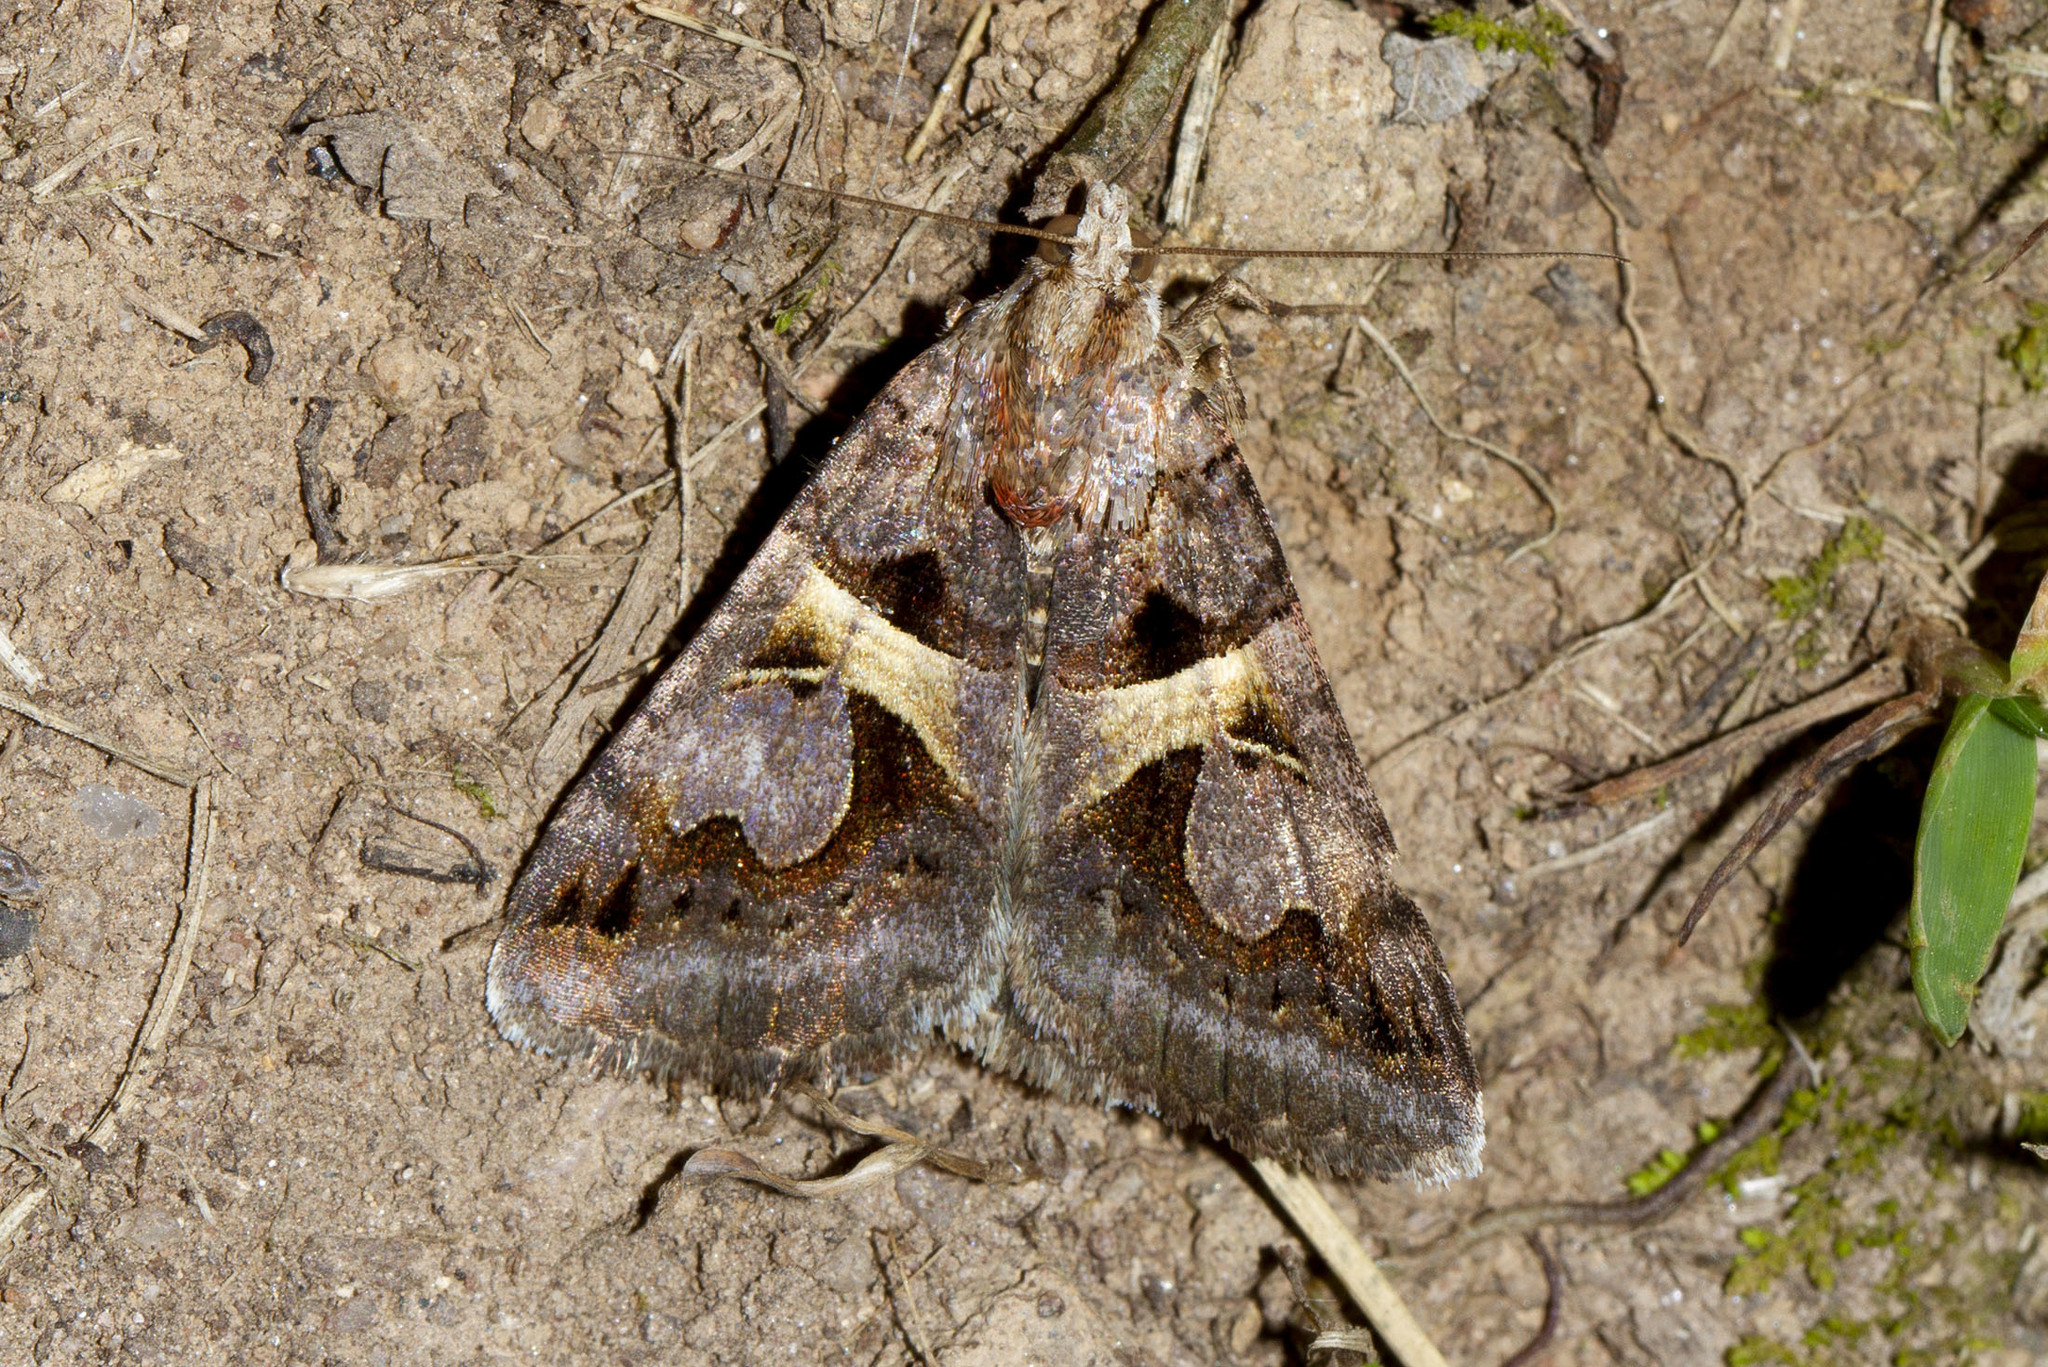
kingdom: Animalia
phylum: Arthropoda
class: Insecta
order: Lepidoptera
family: Erebidae
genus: Drasteria
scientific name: Drasteria grandirena
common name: Figure-seven moth
